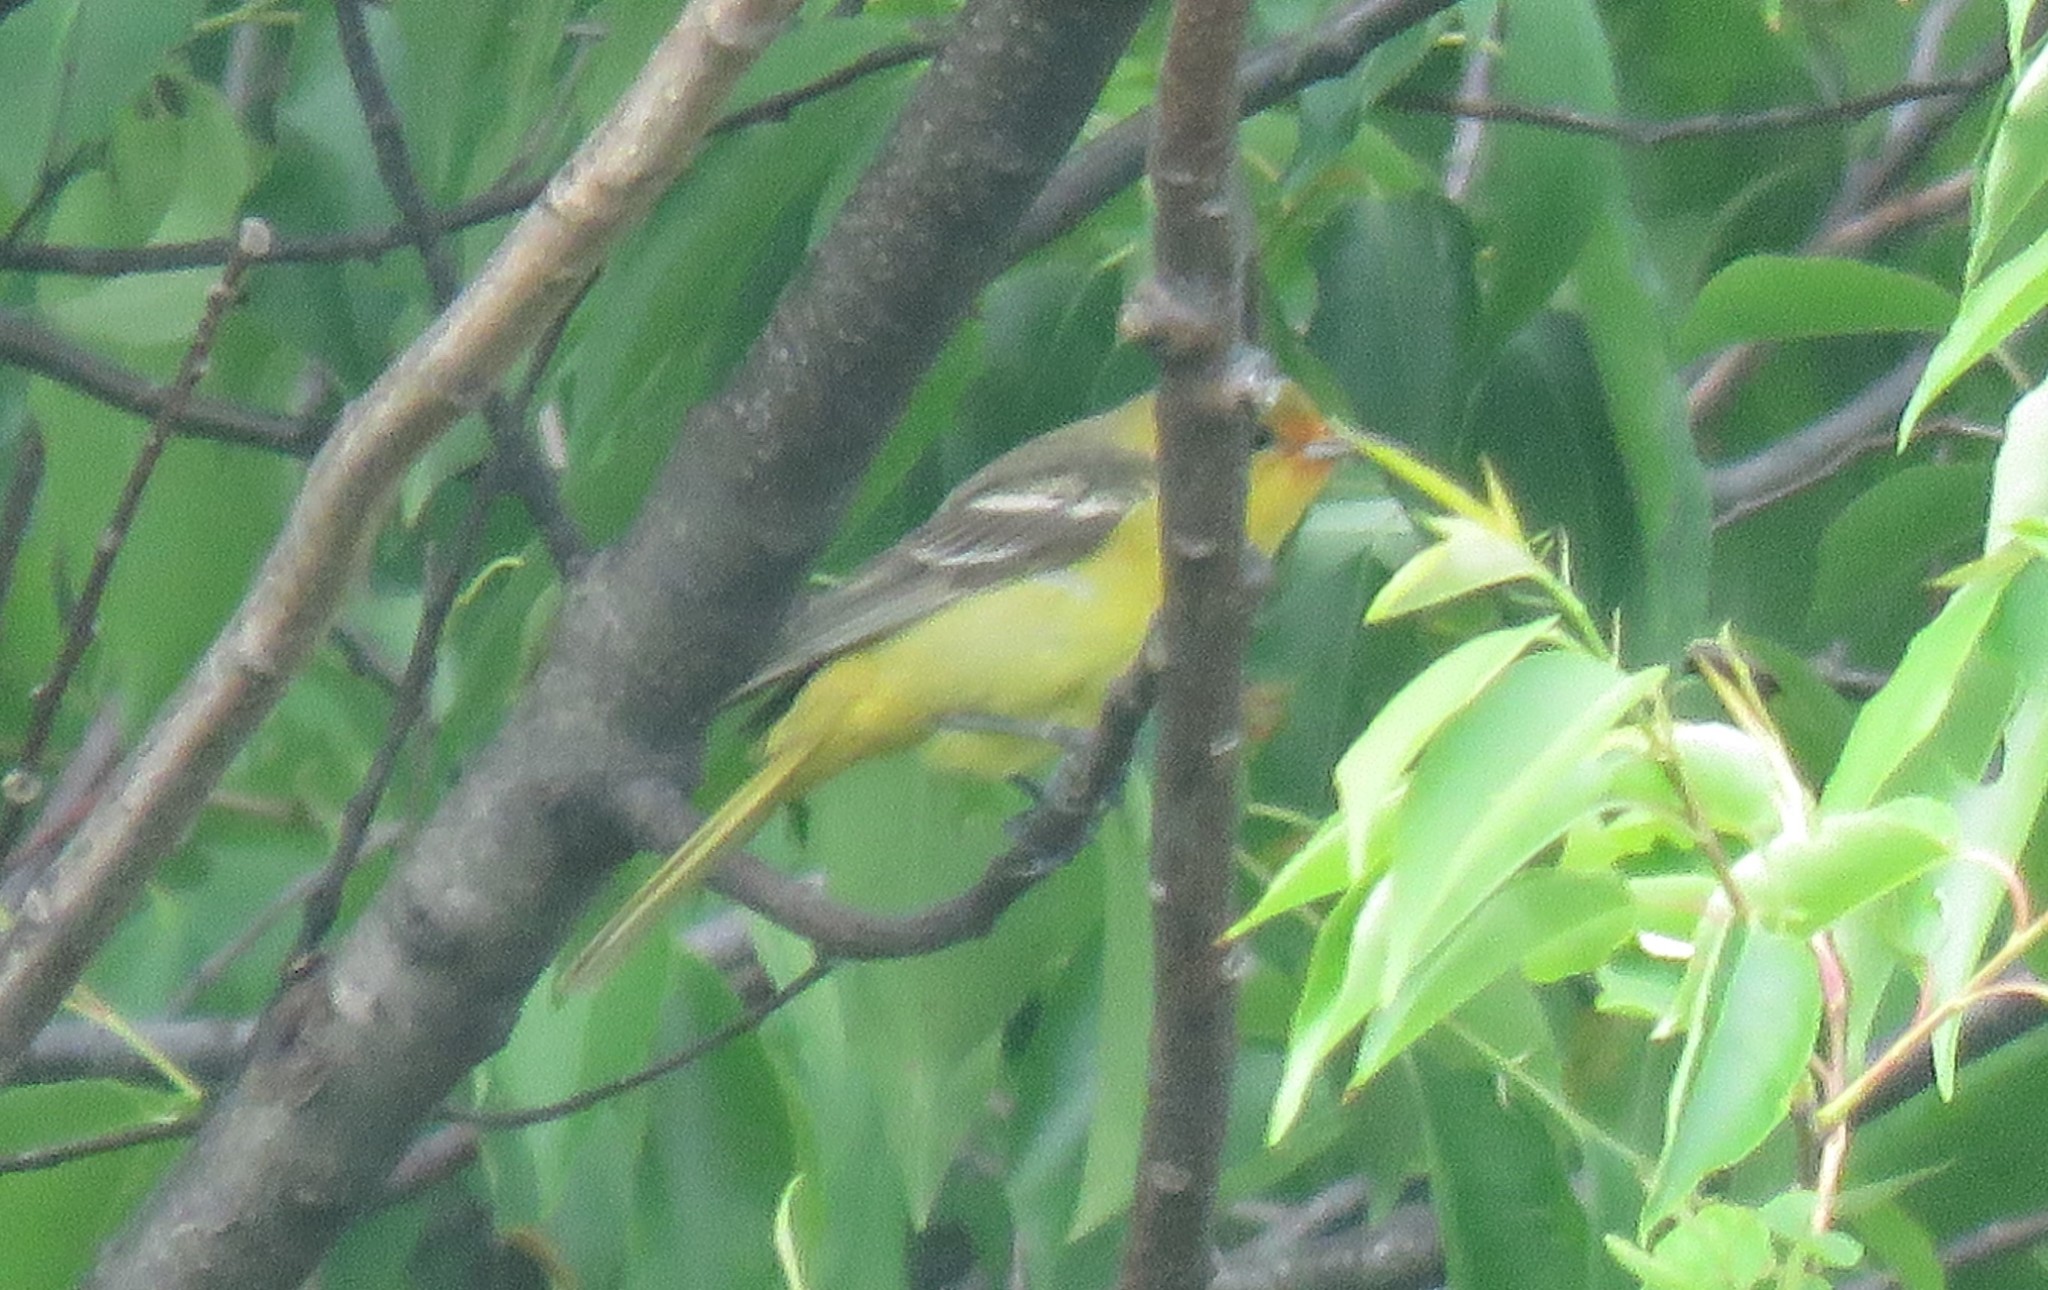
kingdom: Animalia
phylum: Chordata
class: Aves
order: Passeriformes
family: Icteridae
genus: Icterus
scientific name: Icterus spurius
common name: Orchard oriole
